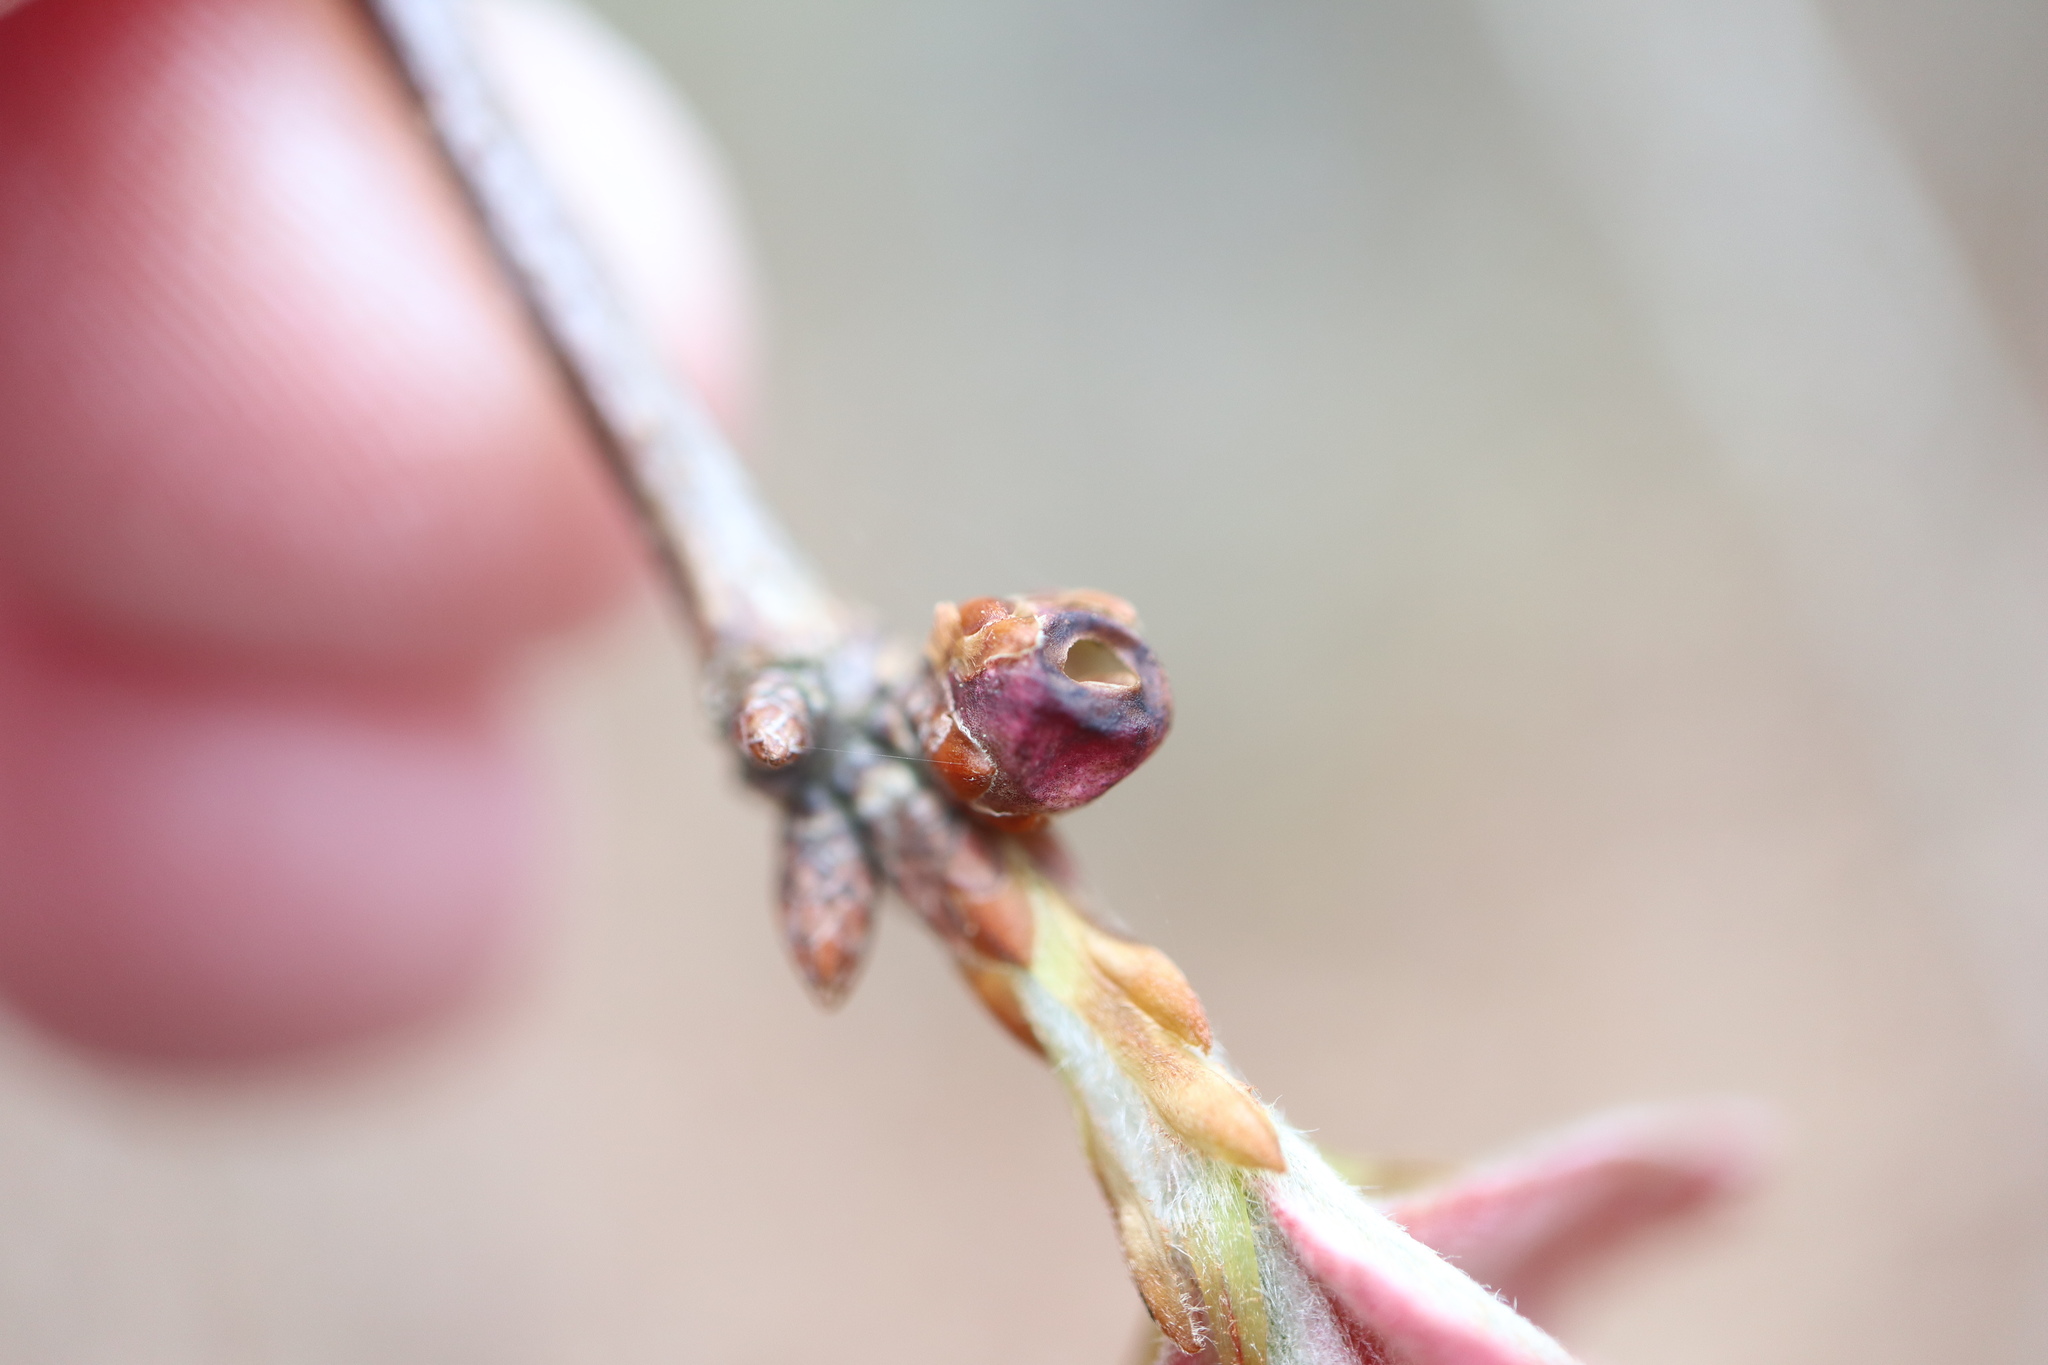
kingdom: Animalia
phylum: Arthropoda
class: Insecta
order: Hymenoptera
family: Cynipidae
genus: Neuroterus
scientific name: Neuroterus
